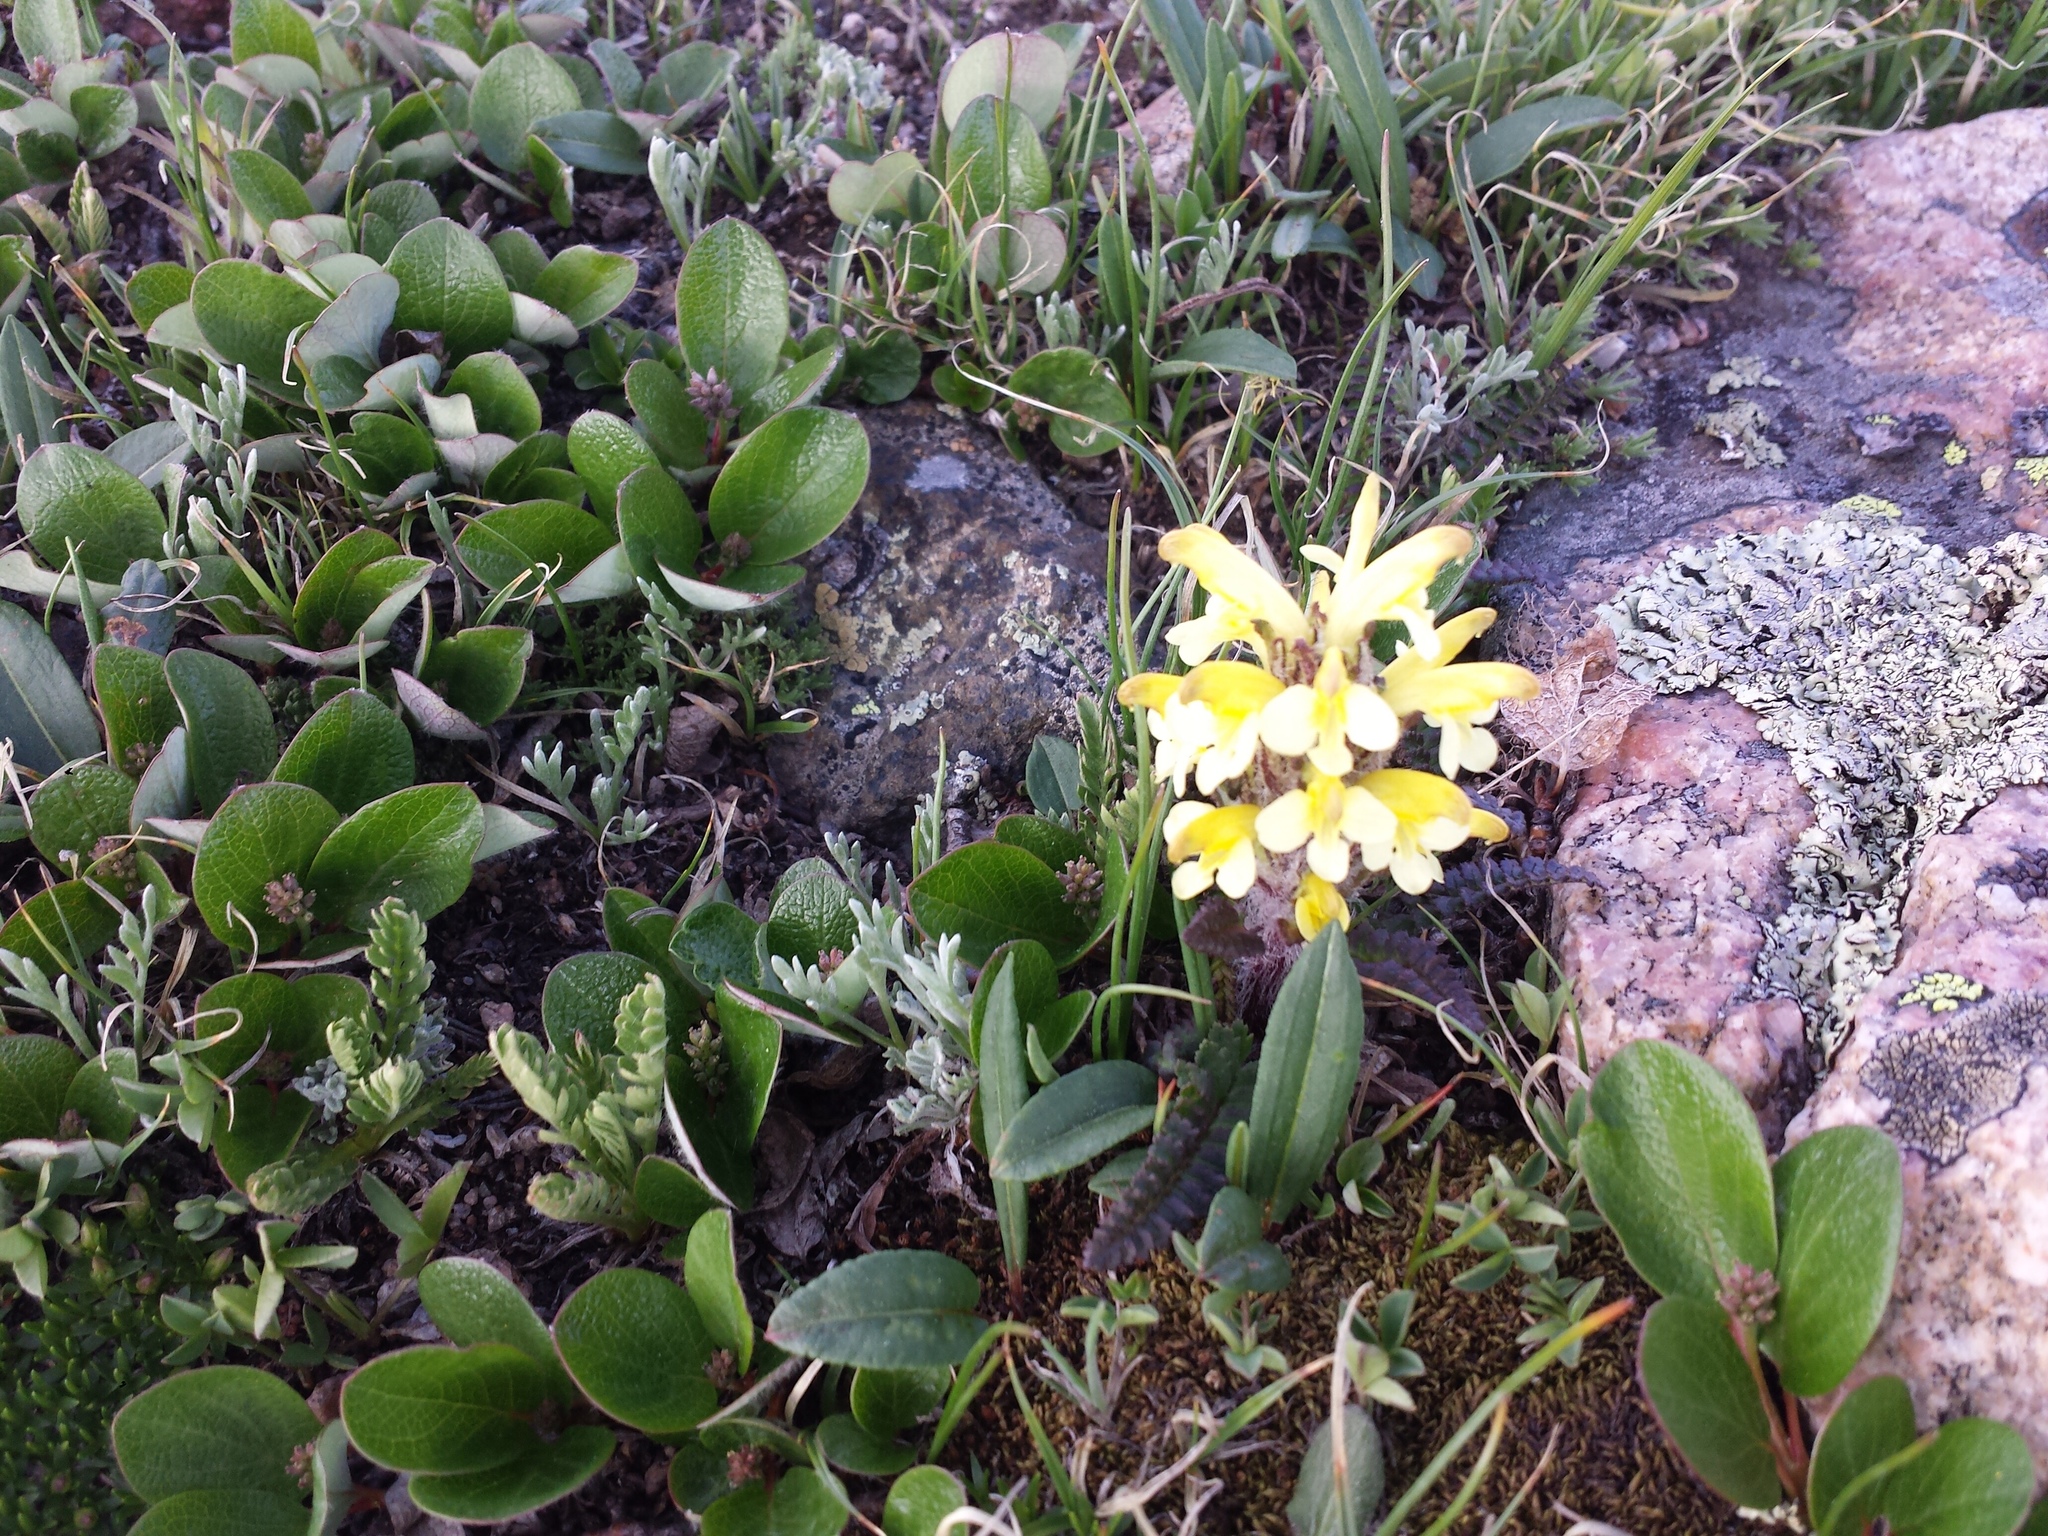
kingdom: Plantae
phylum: Tracheophyta
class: Magnoliopsida
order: Lamiales
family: Orobanchaceae
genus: Pedicularis
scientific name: Pedicularis oederi
